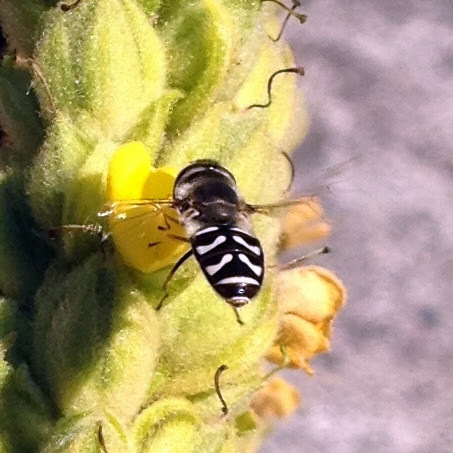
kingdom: Animalia
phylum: Arthropoda
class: Insecta
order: Diptera
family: Syrphidae
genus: Scaeva
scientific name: Scaeva affinis
